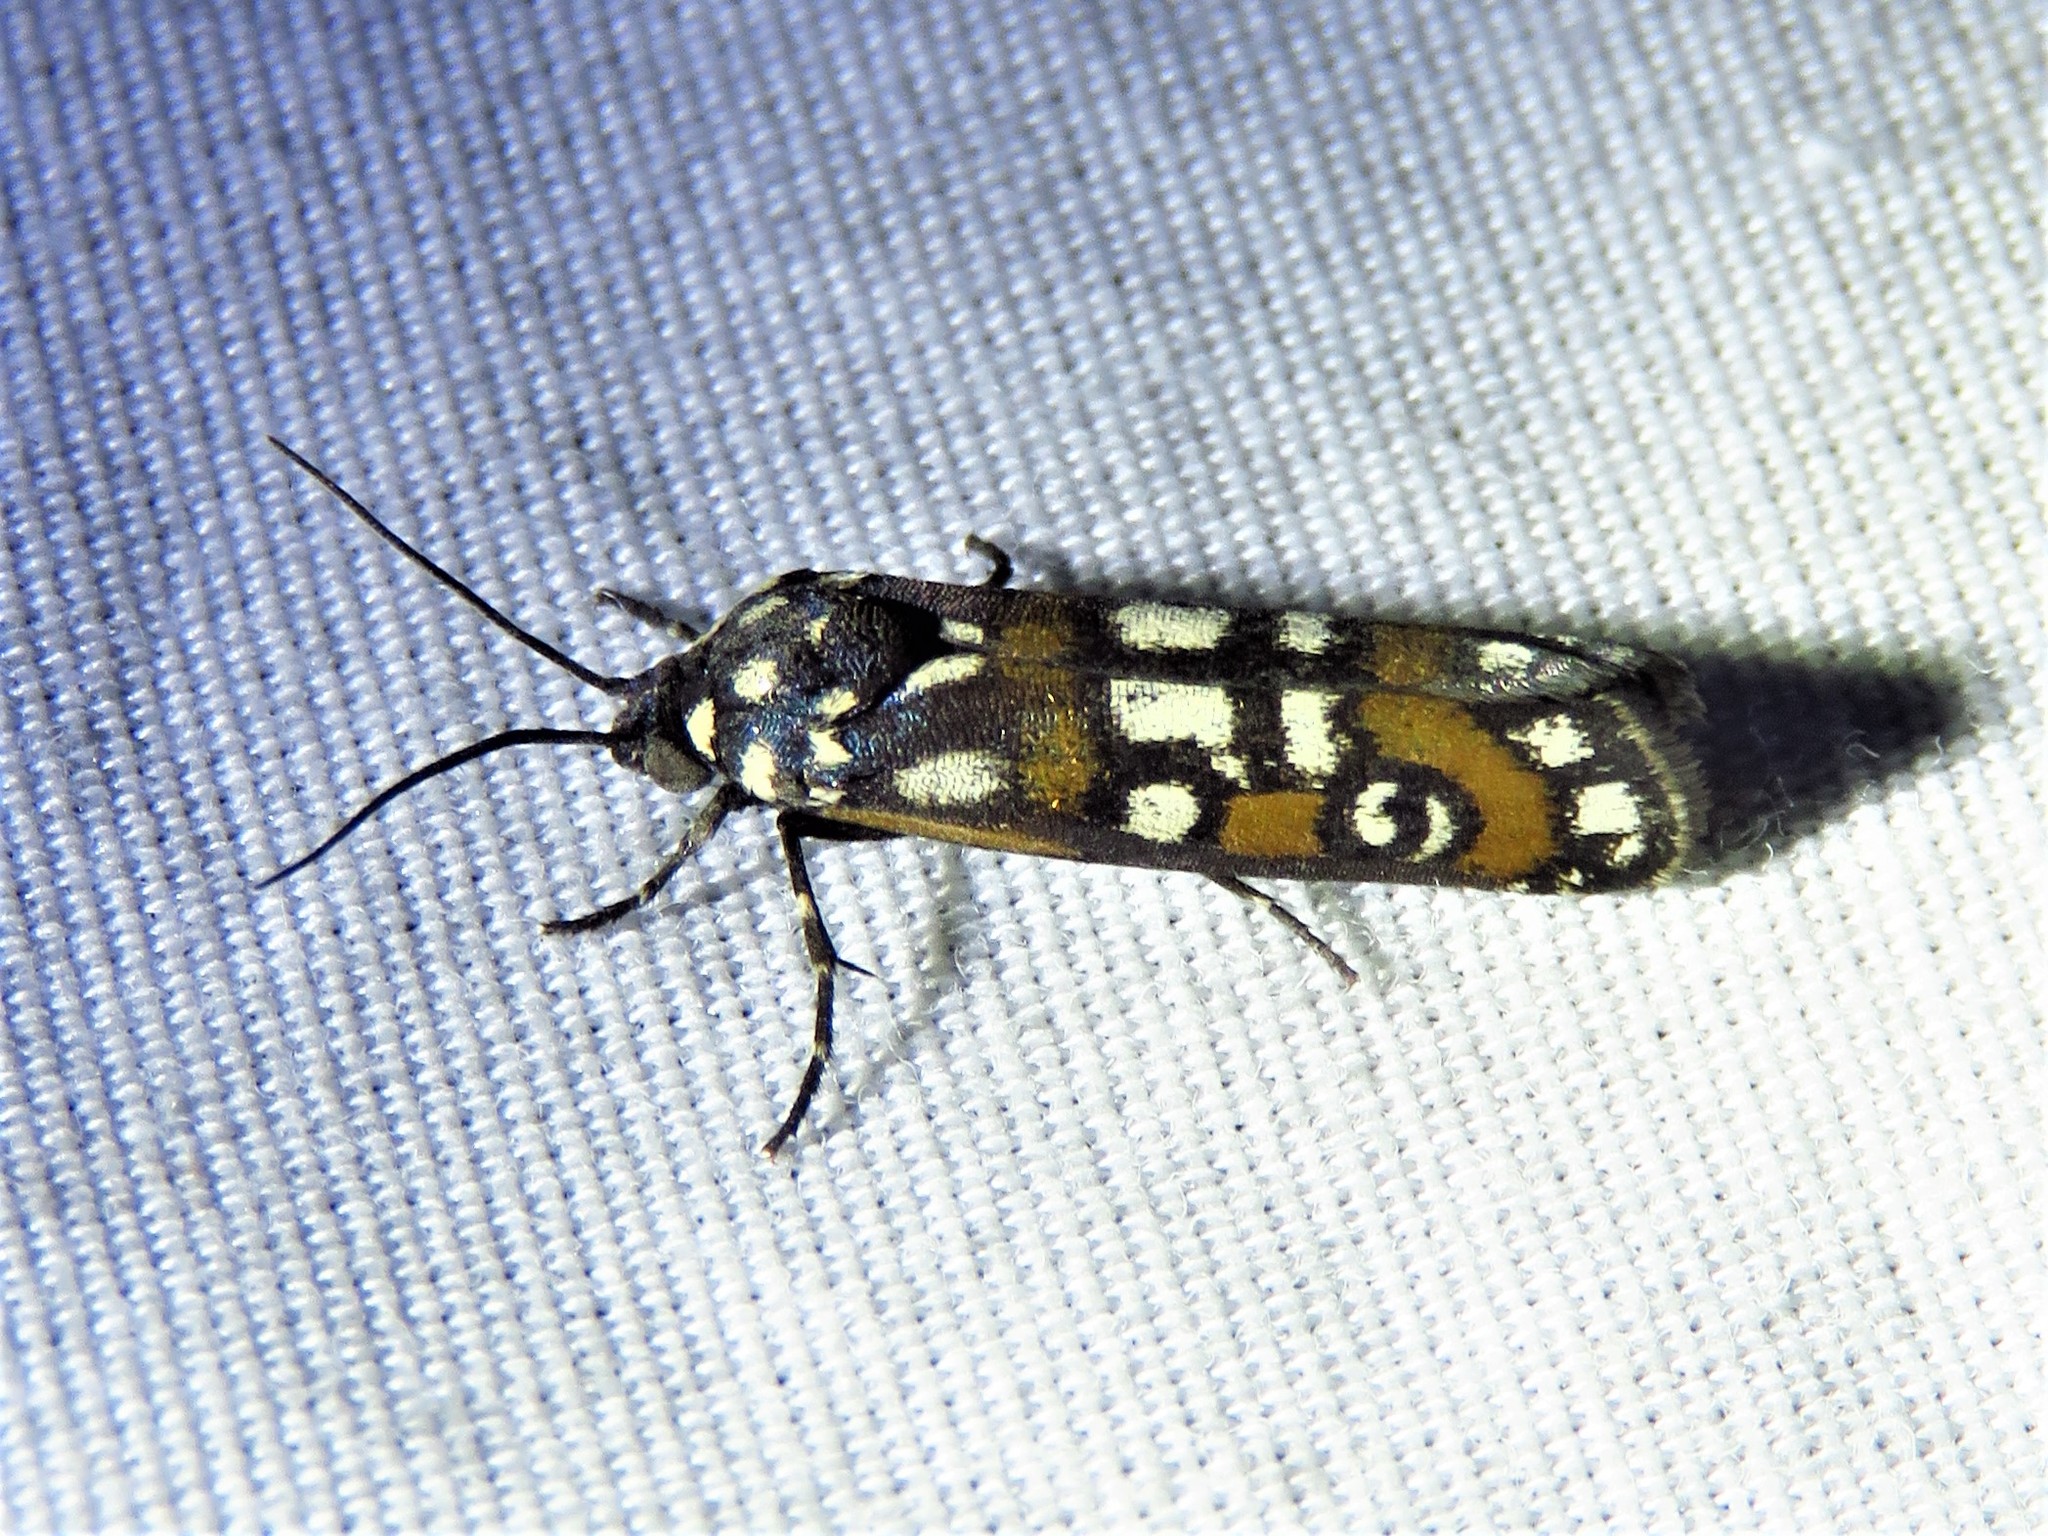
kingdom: Animalia
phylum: Arthropoda
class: Insecta
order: Lepidoptera
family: Noctuidae
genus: Cydosia
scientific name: Cydosia aurivitta
